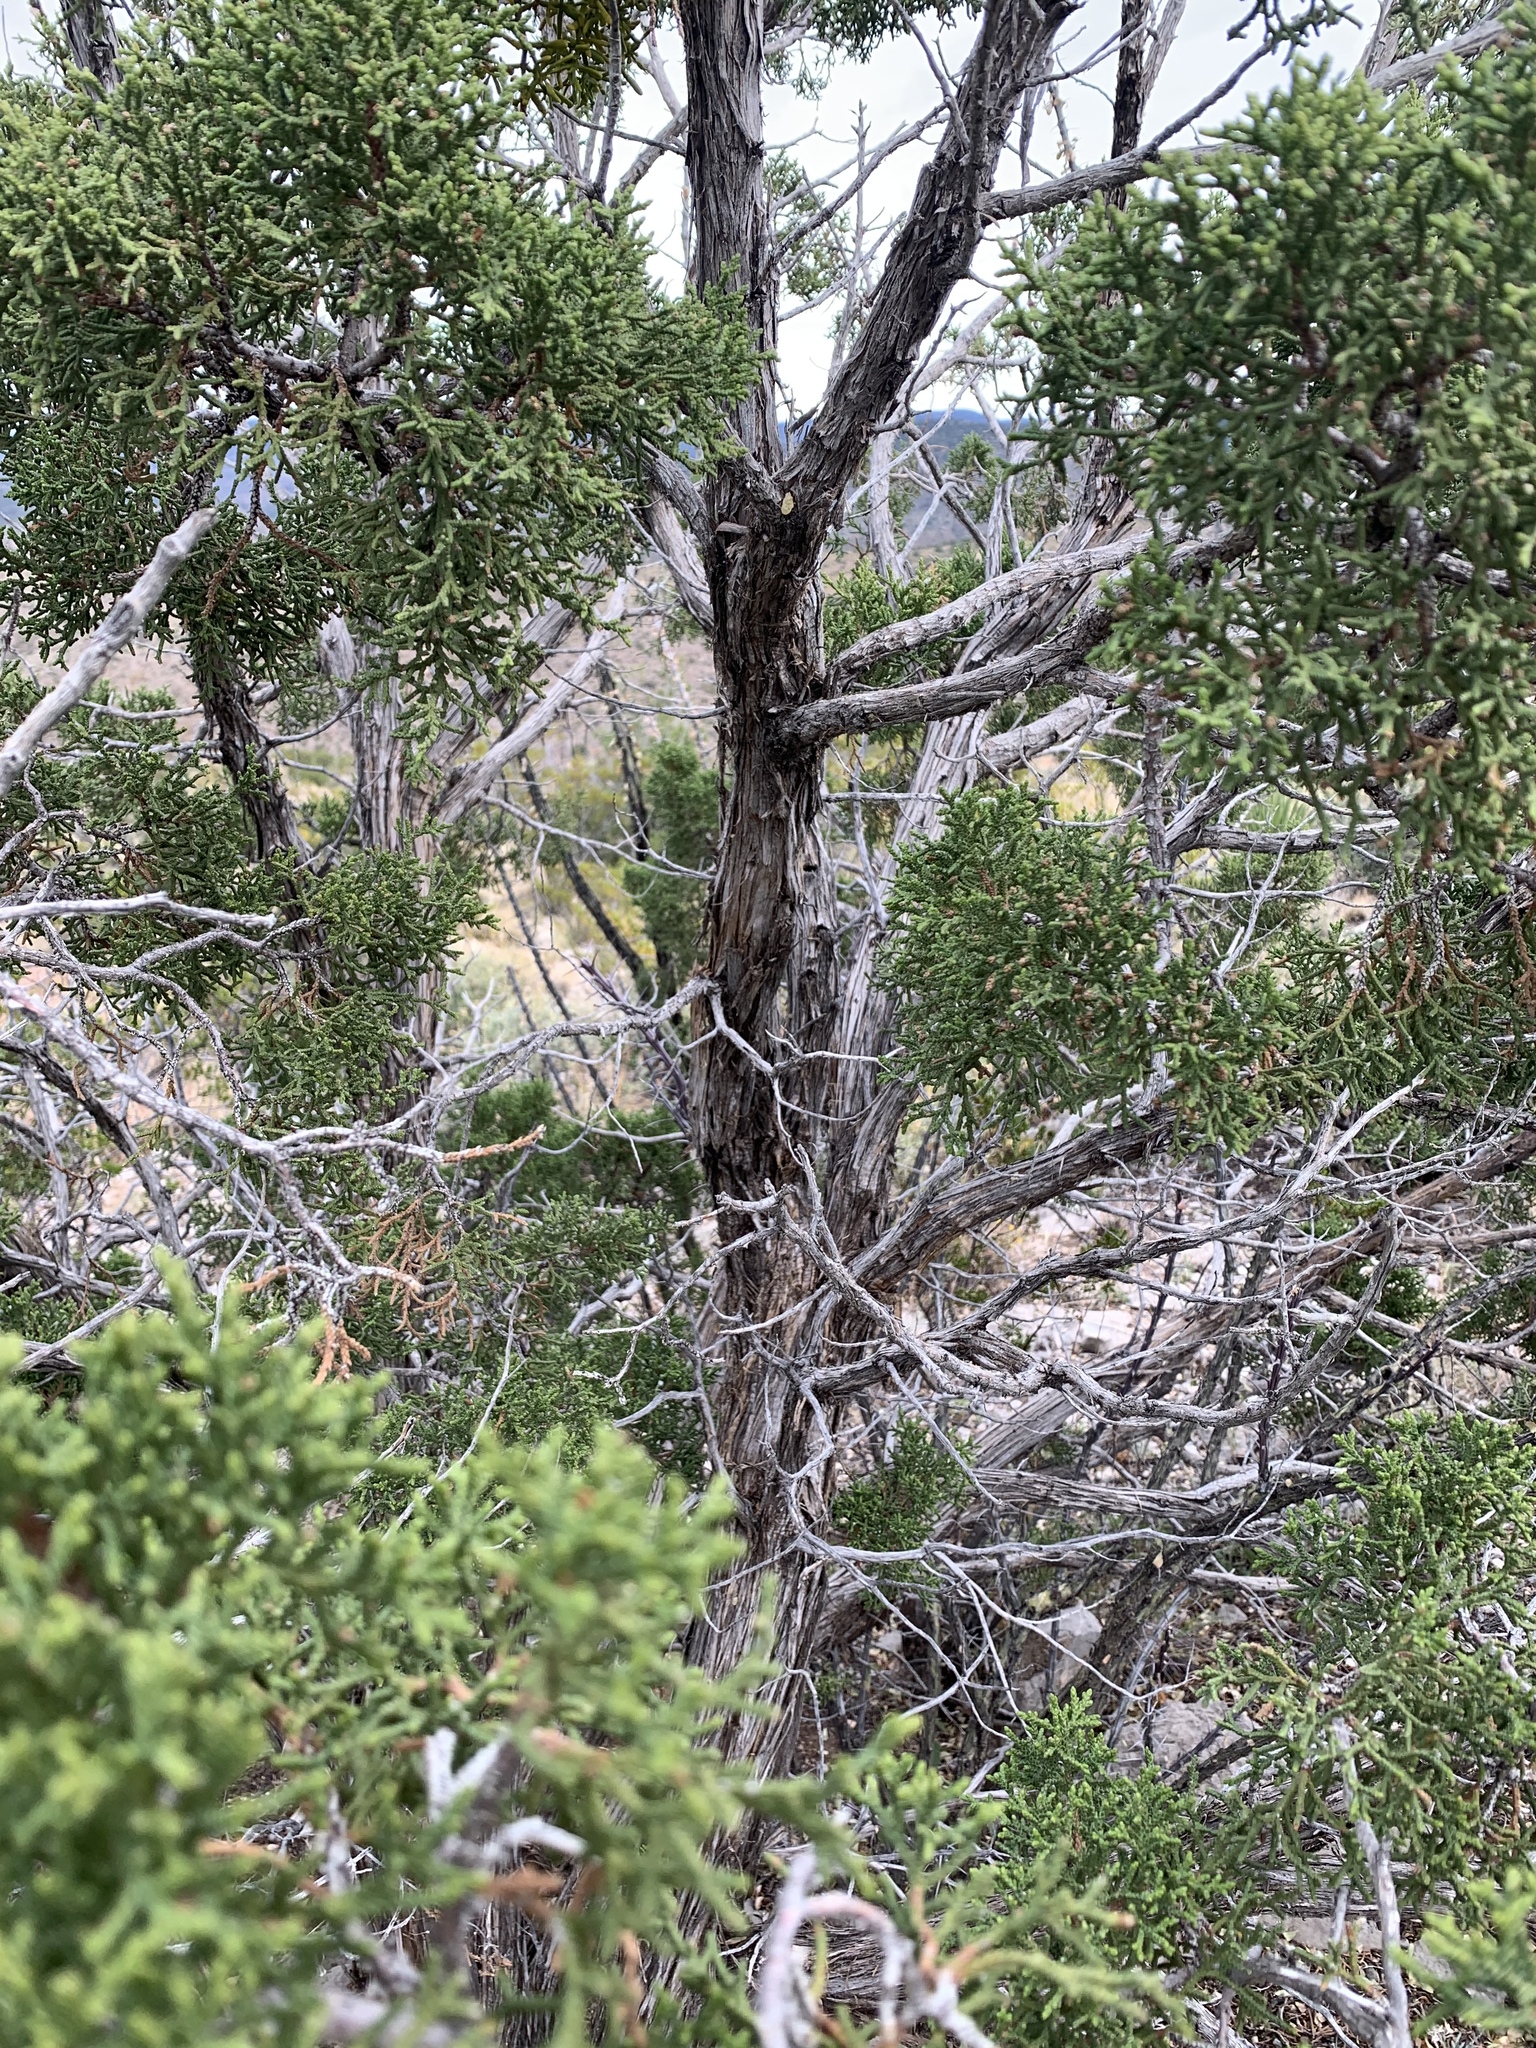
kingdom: Plantae
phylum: Tracheophyta
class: Pinopsida
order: Pinales
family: Cupressaceae
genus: Juniperus
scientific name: Juniperus monosperma
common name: One-seed juniper
